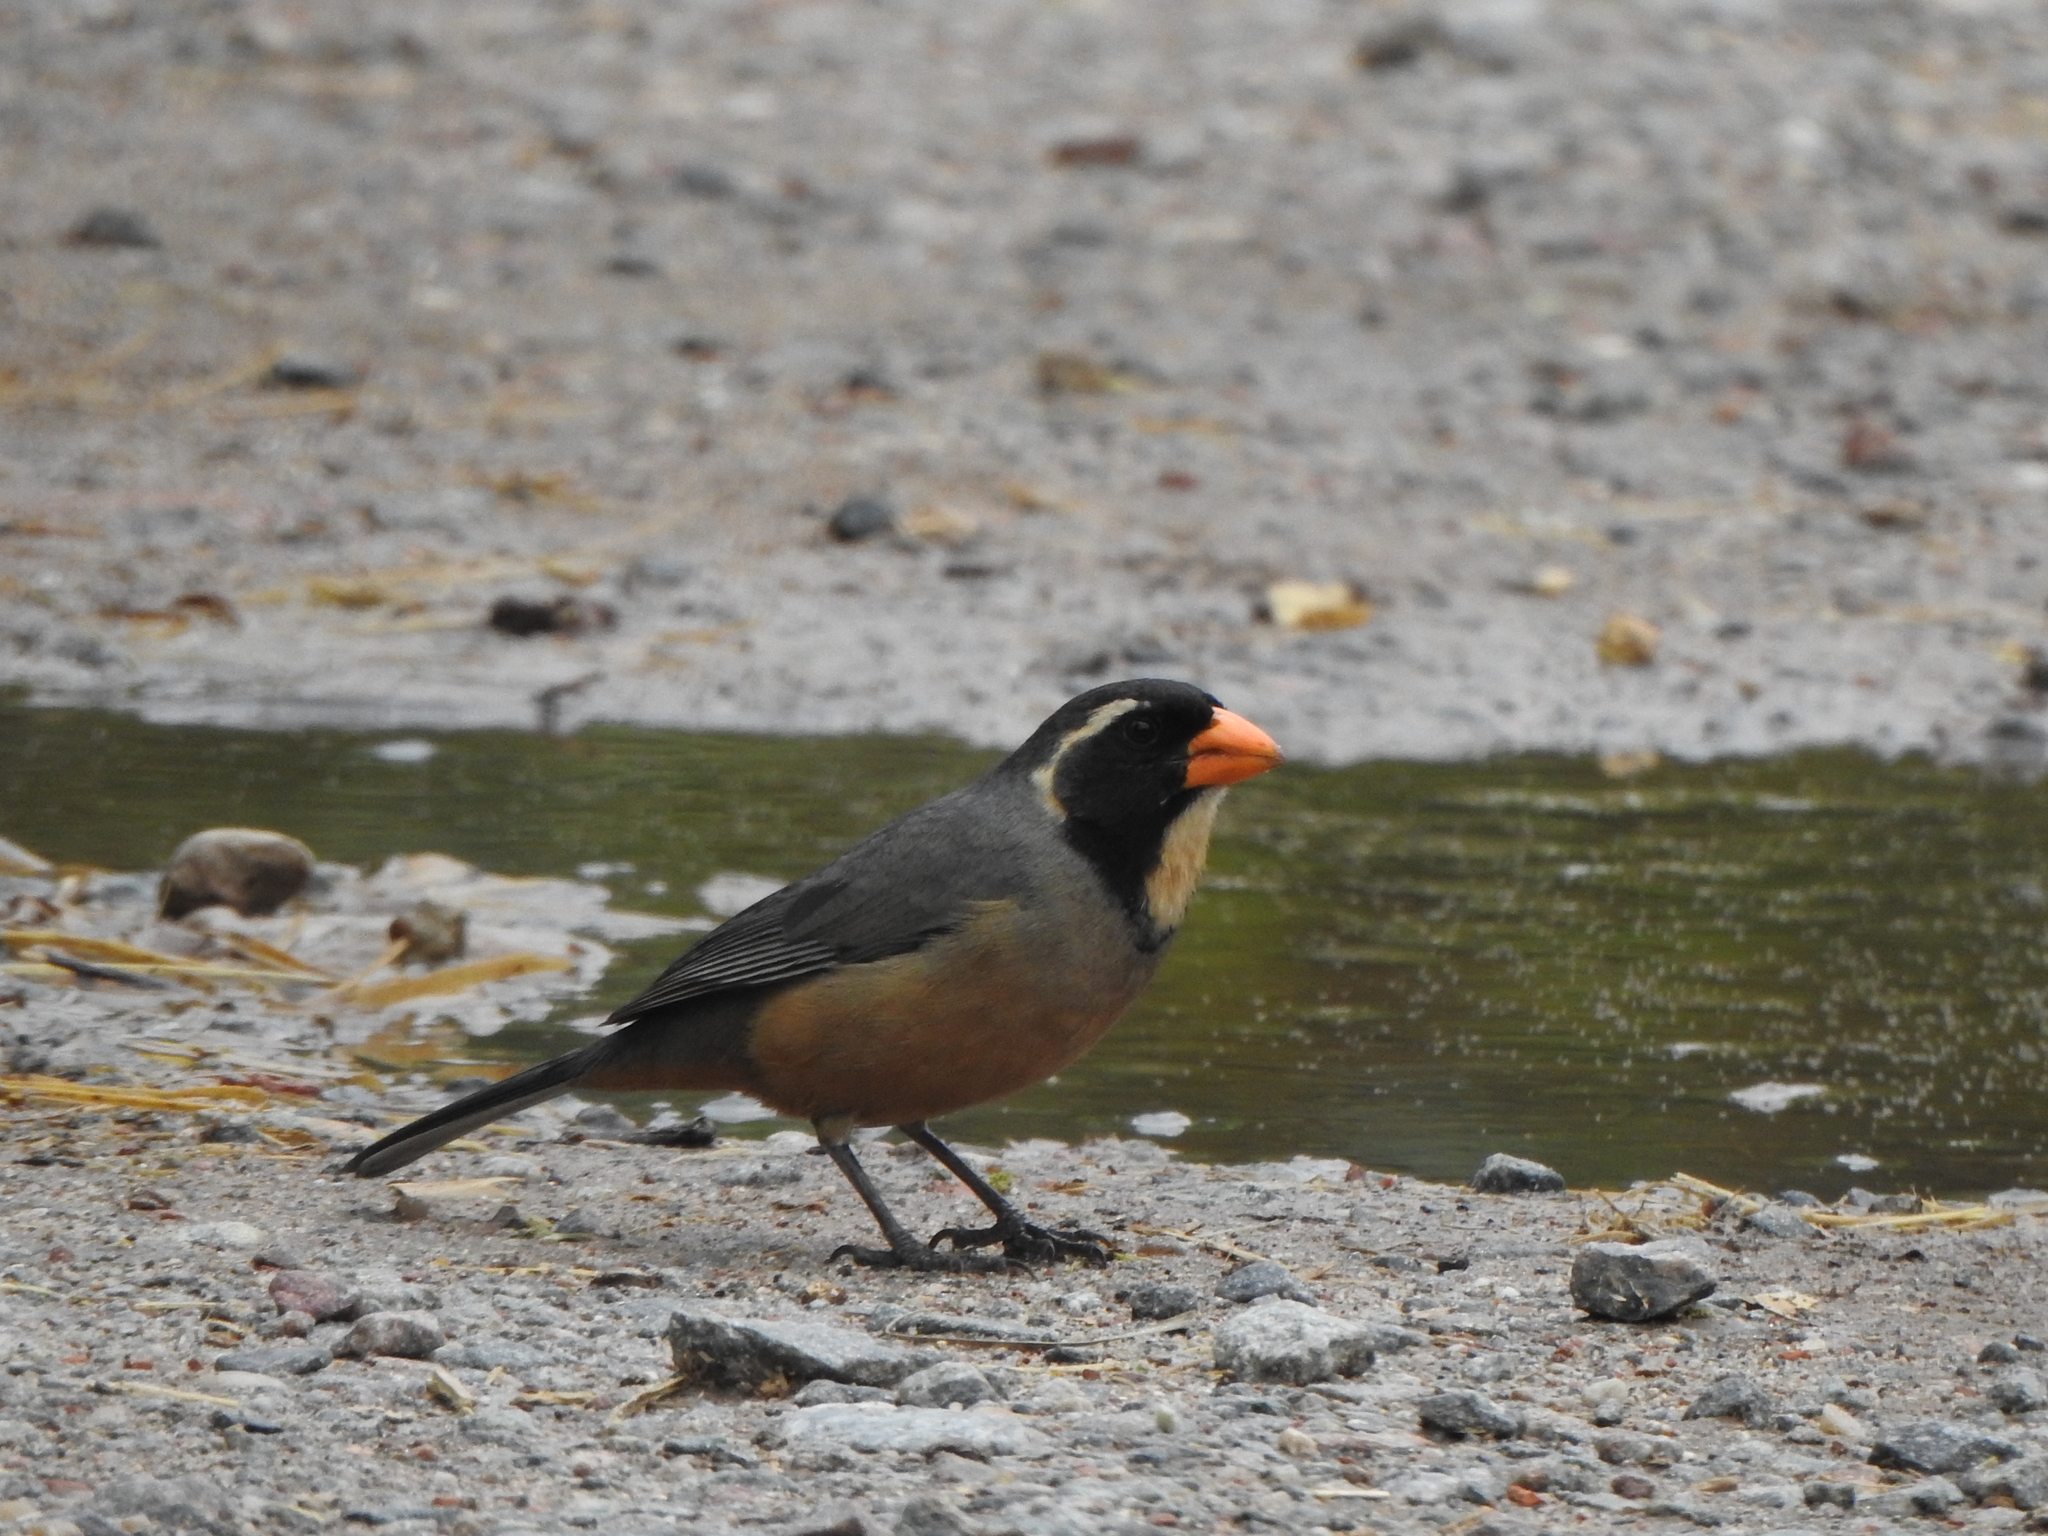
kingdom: Animalia
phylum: Chordata
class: Aves
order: Passeriformes
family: Thraupidae
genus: Saltator
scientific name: Saltator aurantiirostris
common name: Golden-billed saltator
